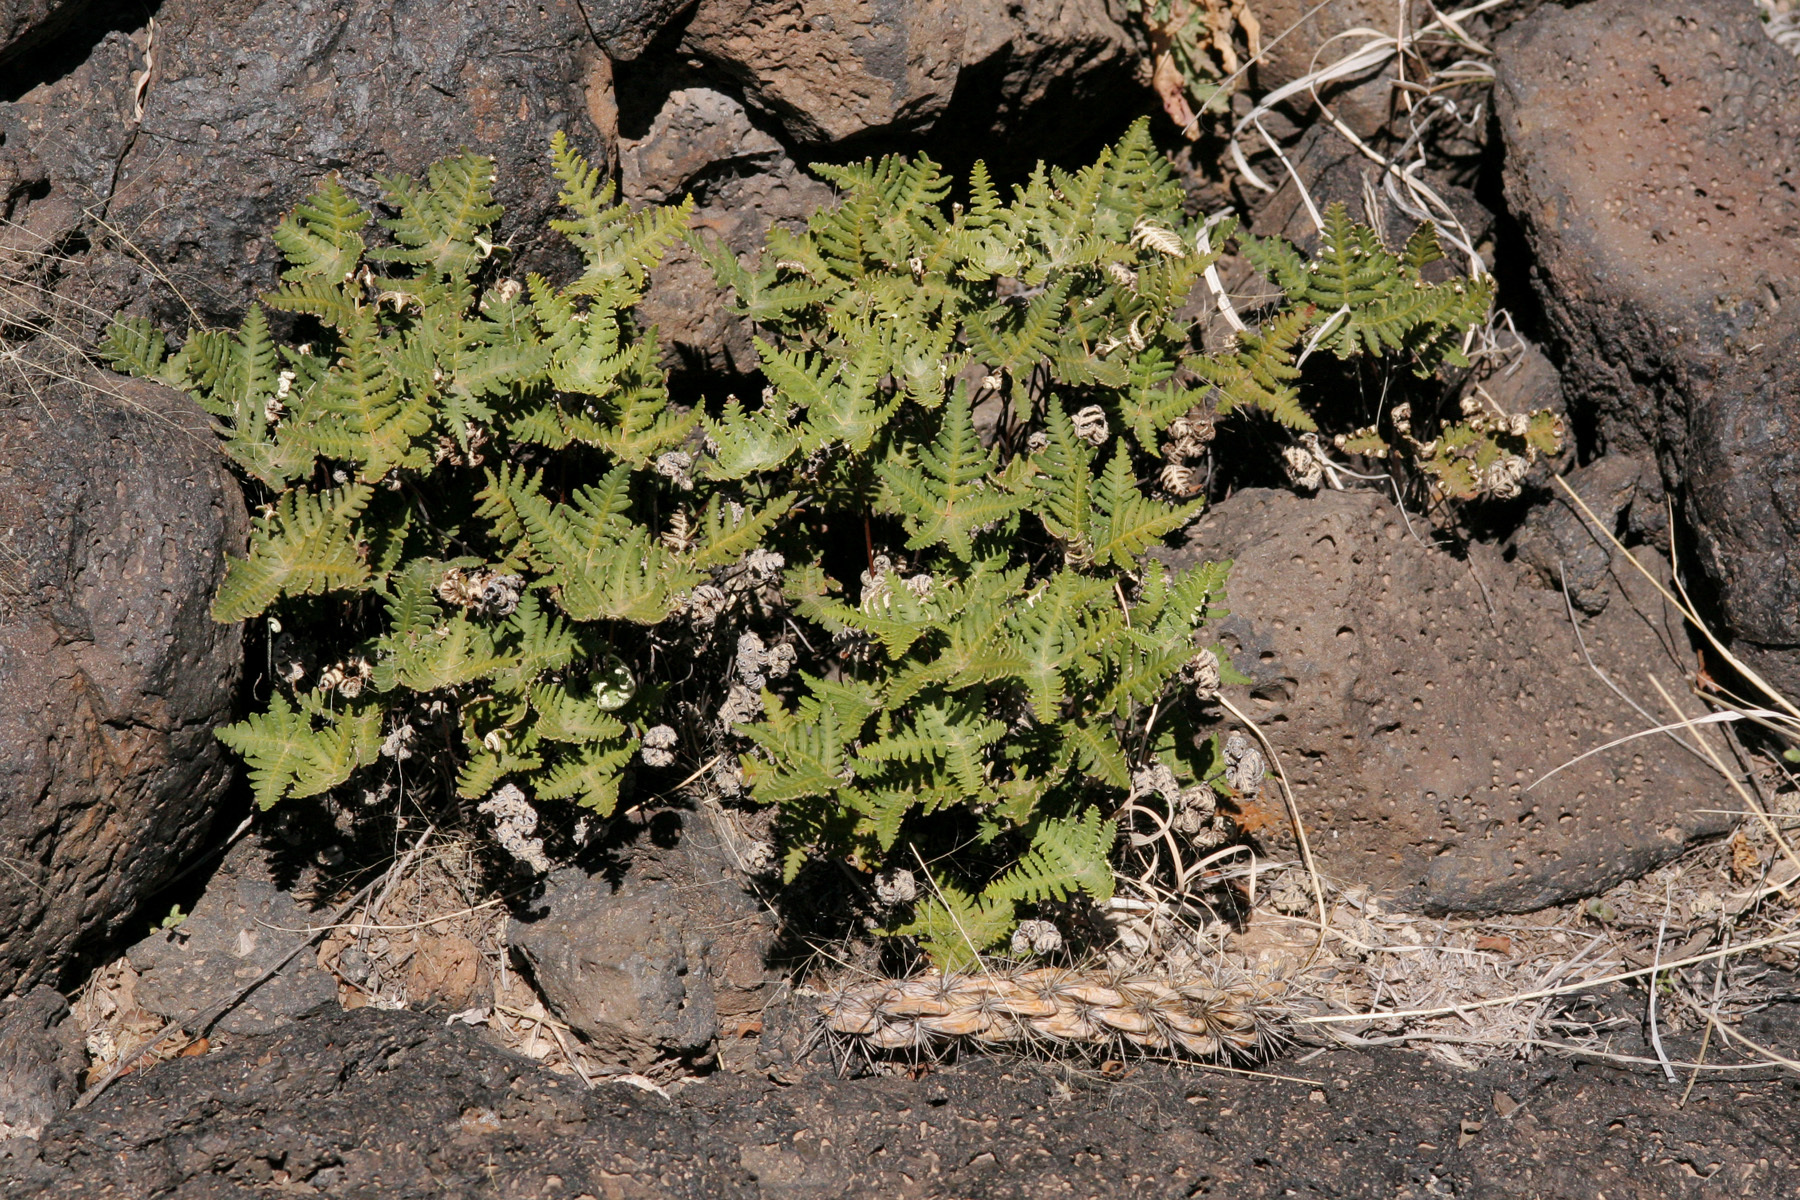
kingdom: Plantae
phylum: Tracheophyta
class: Polypodiopsida
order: Polypodiales
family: Pteridaceae
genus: Notholaena
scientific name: Notholaena standleyi
